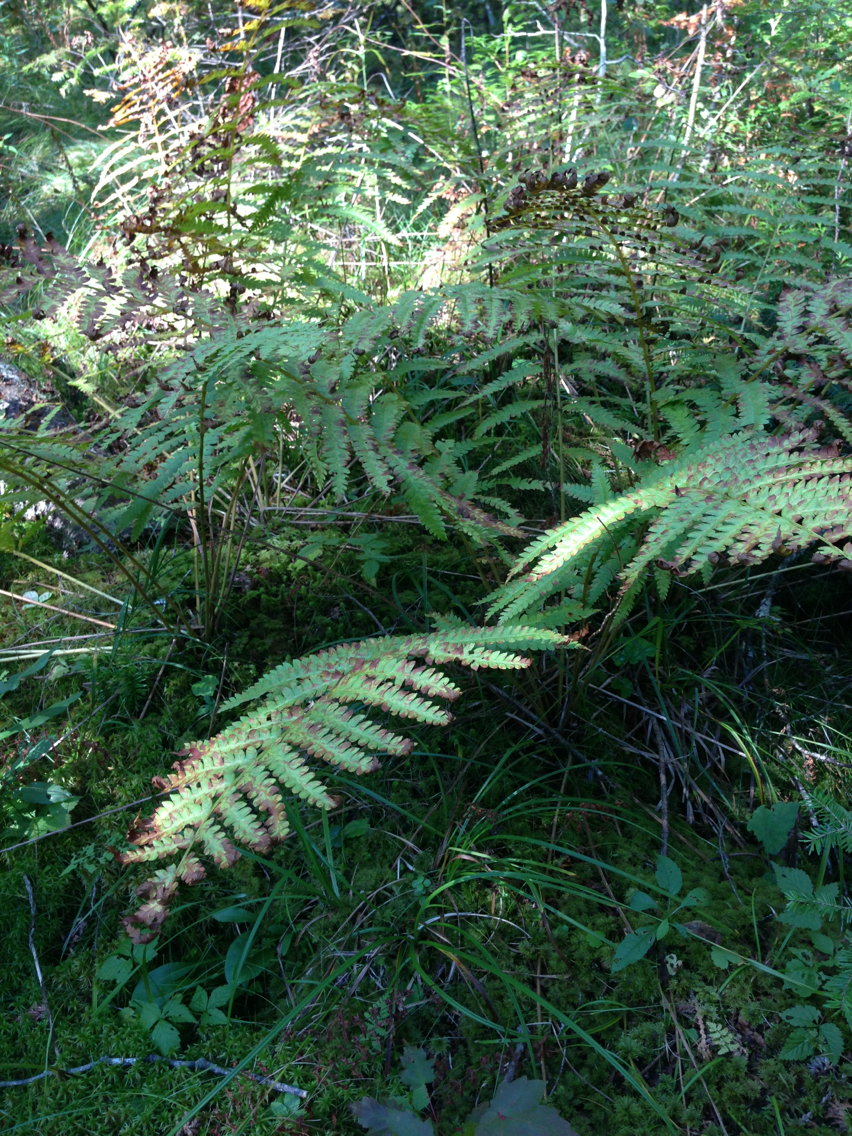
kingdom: Plantae
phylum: Tracheophyta
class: Polypodiopsida
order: Osmundales
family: Osmundaceae
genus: Osmundastrum
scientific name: Osmundastrum cinnamomeum
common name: Cinnamon fern
